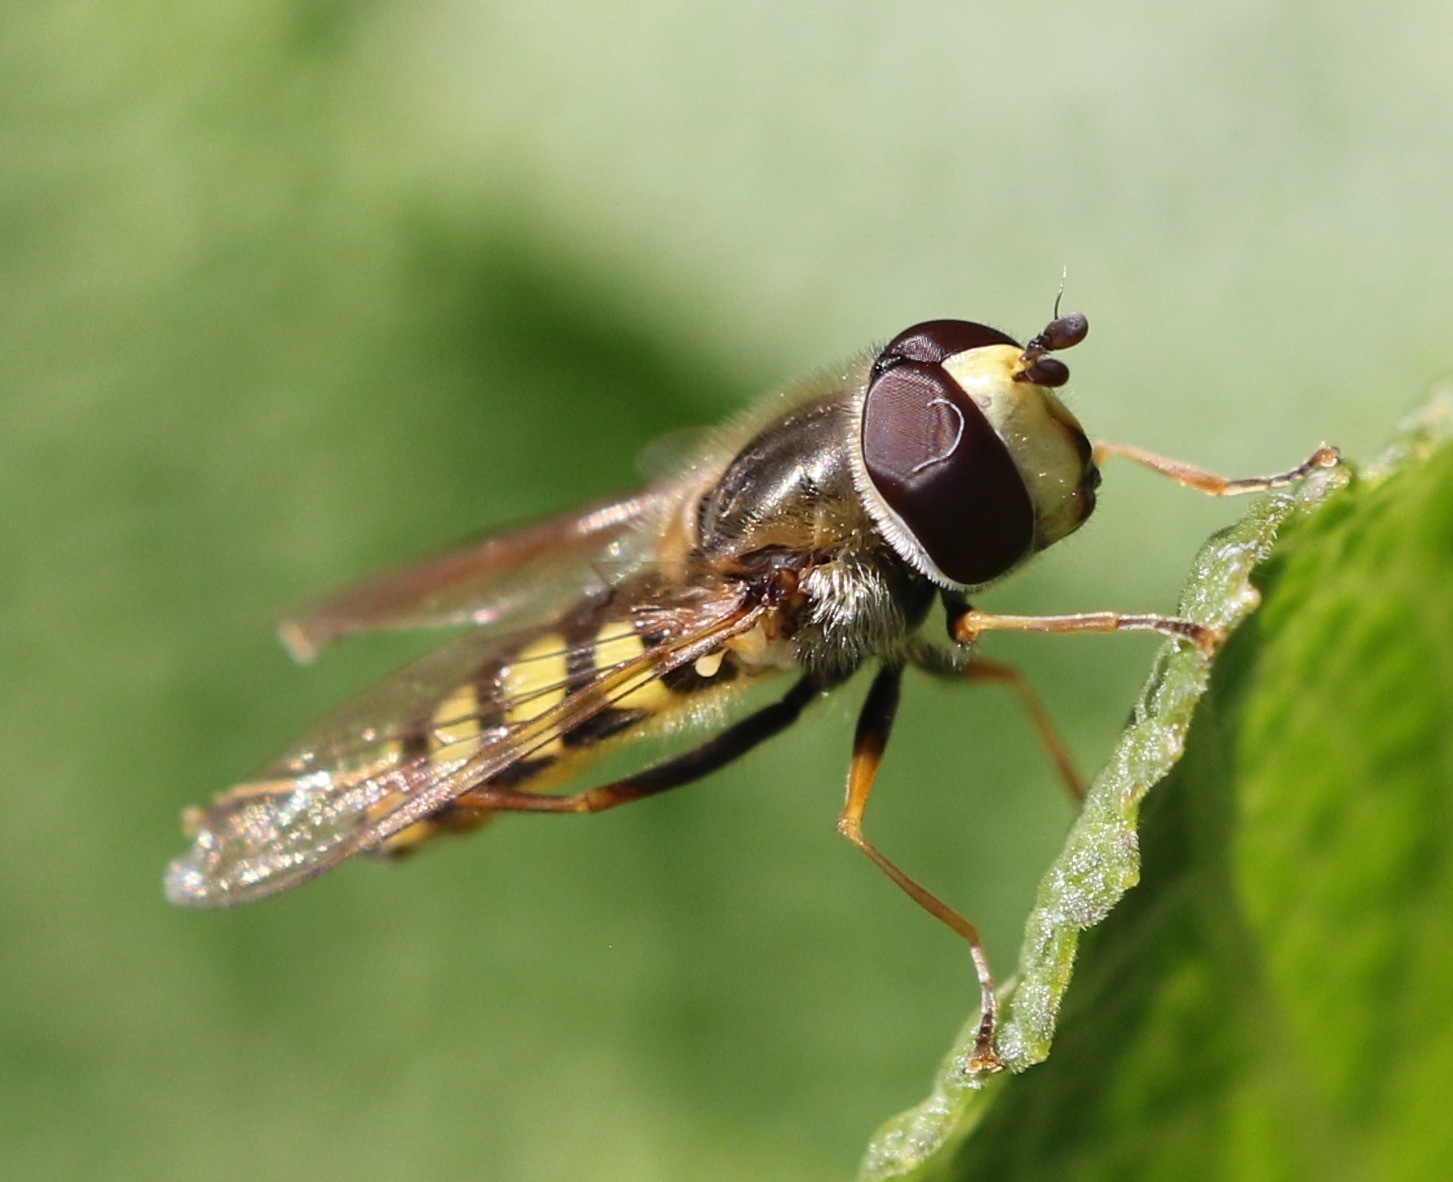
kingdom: Animalia
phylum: Arthropoda
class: Insecta
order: Diptera
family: Syrphidae
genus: Eupeodes
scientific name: Eupeodes corollae
